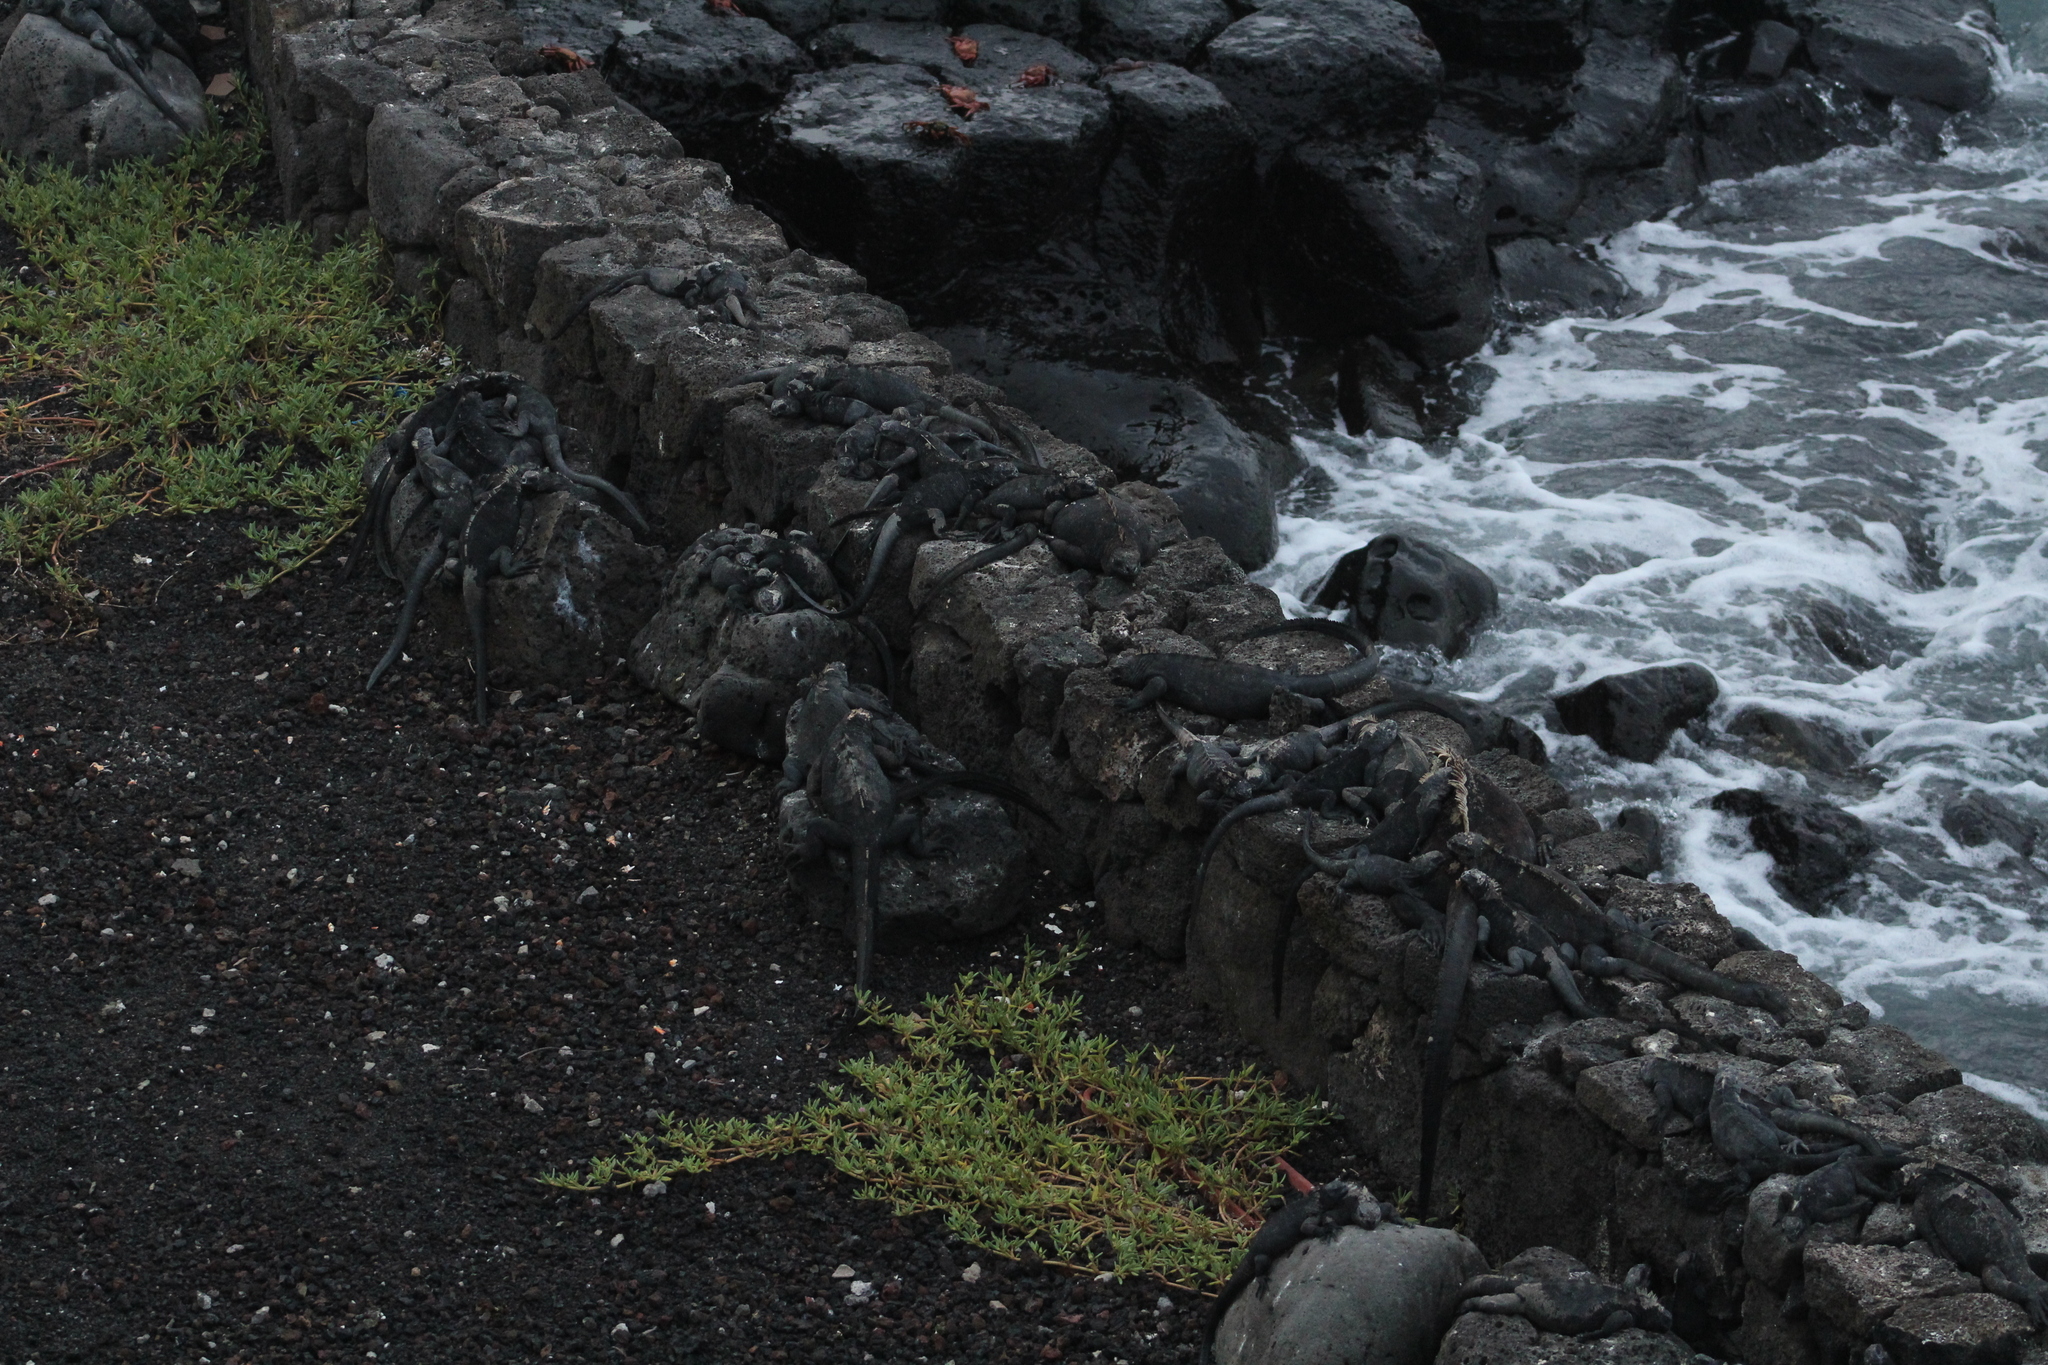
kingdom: Animalia
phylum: Chordata
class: Squamata
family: Iguanidae
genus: Amblyrhynchus
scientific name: Amblyrhynchus cristatus
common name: Marine iguana
